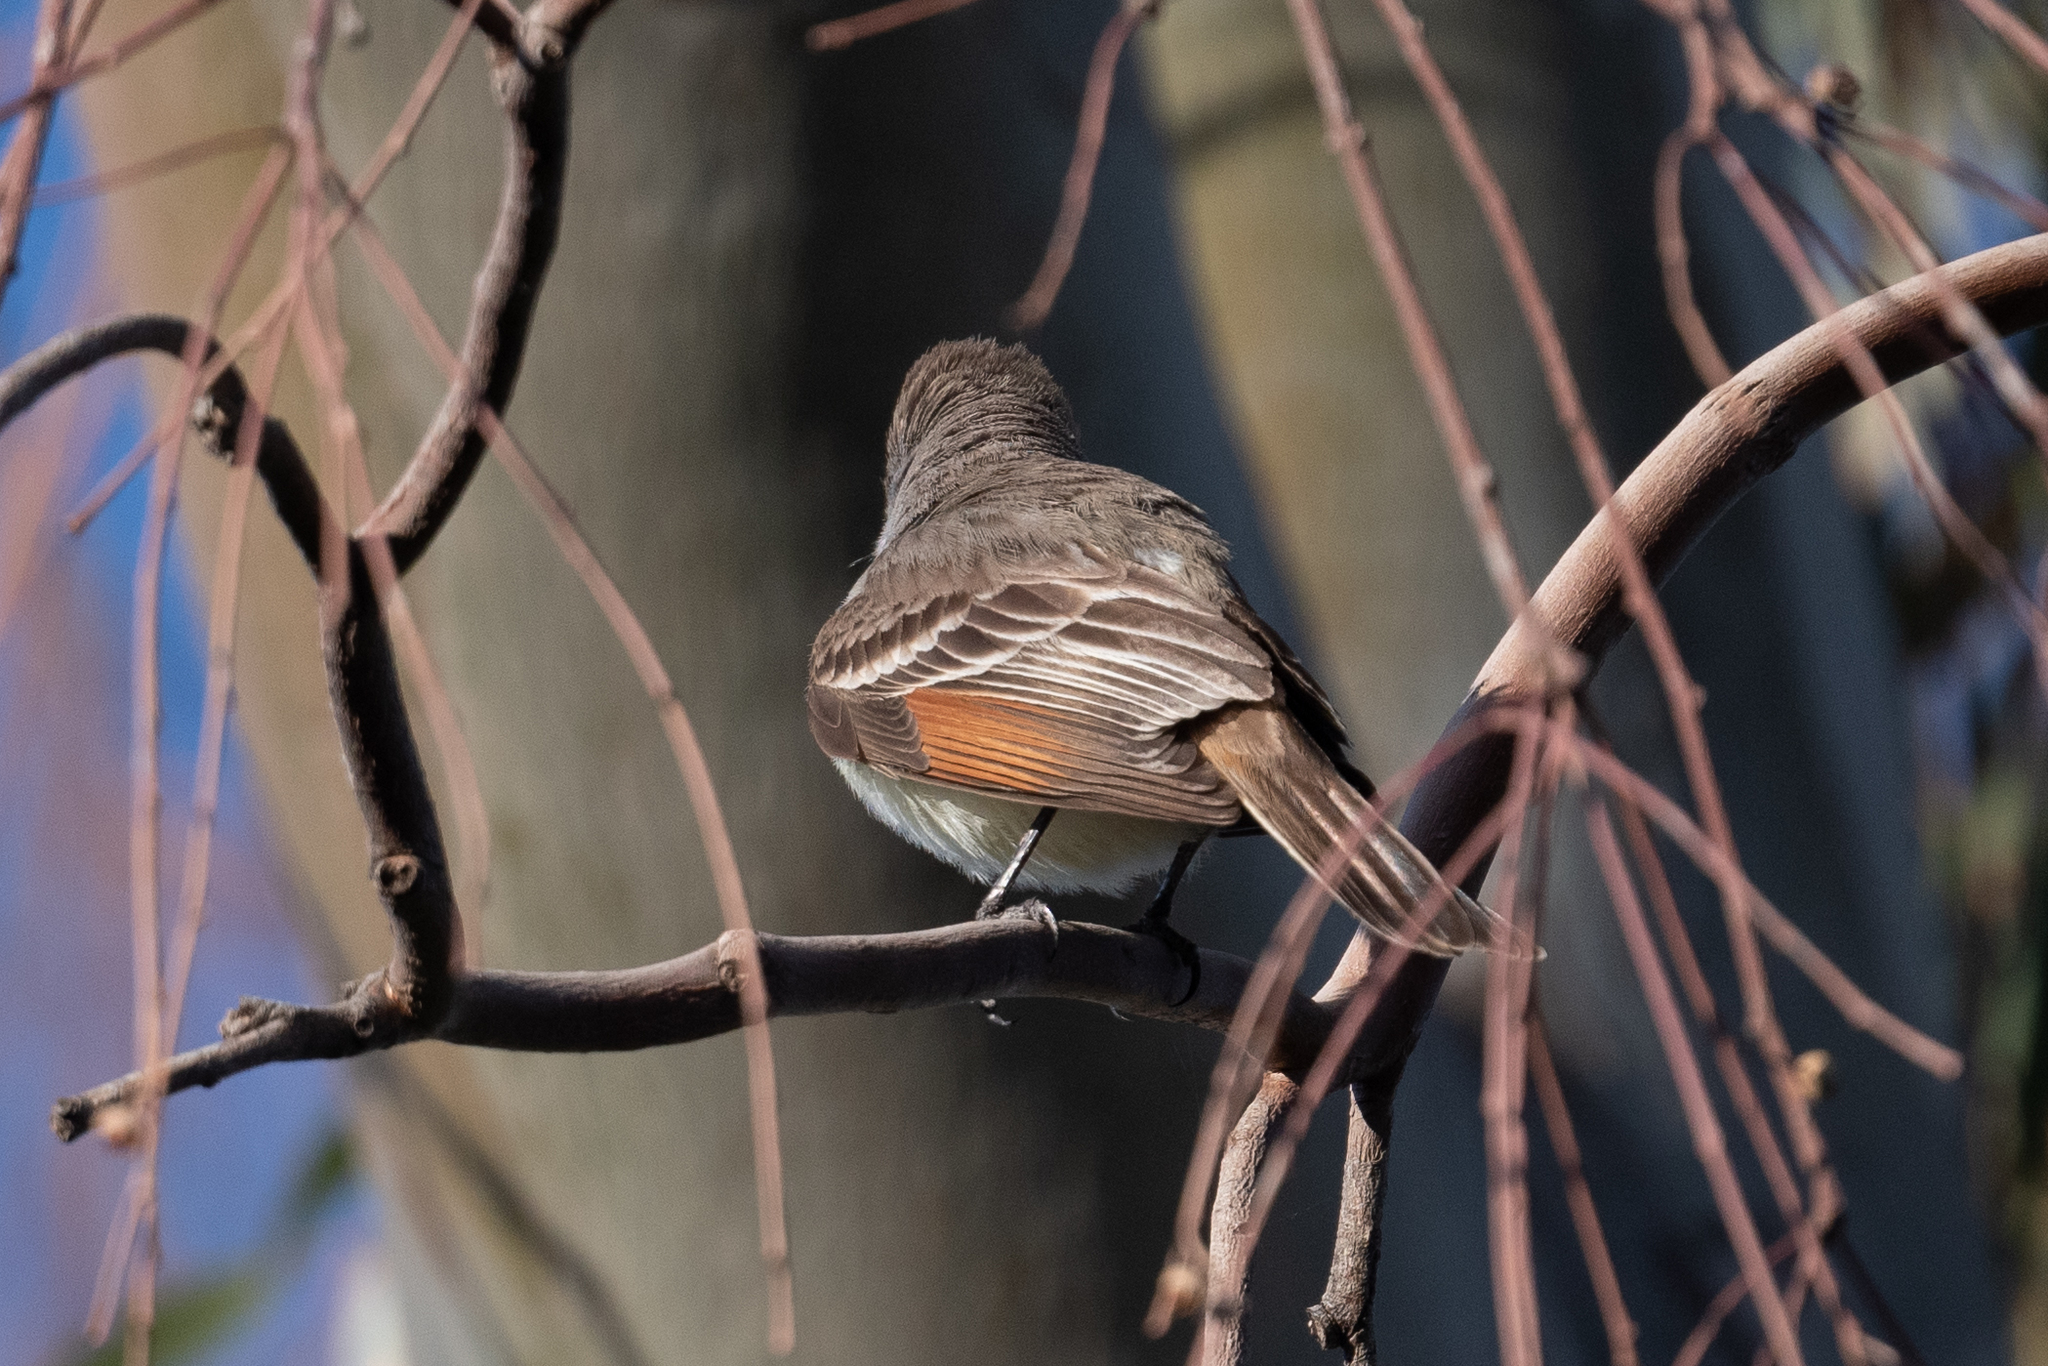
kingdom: Animalia
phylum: Chordata
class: Aves
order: Passeriformes
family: Tyrannidae
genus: Myiarchus
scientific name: Myiarchus cinerascens
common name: Ash-throated flycatcher
